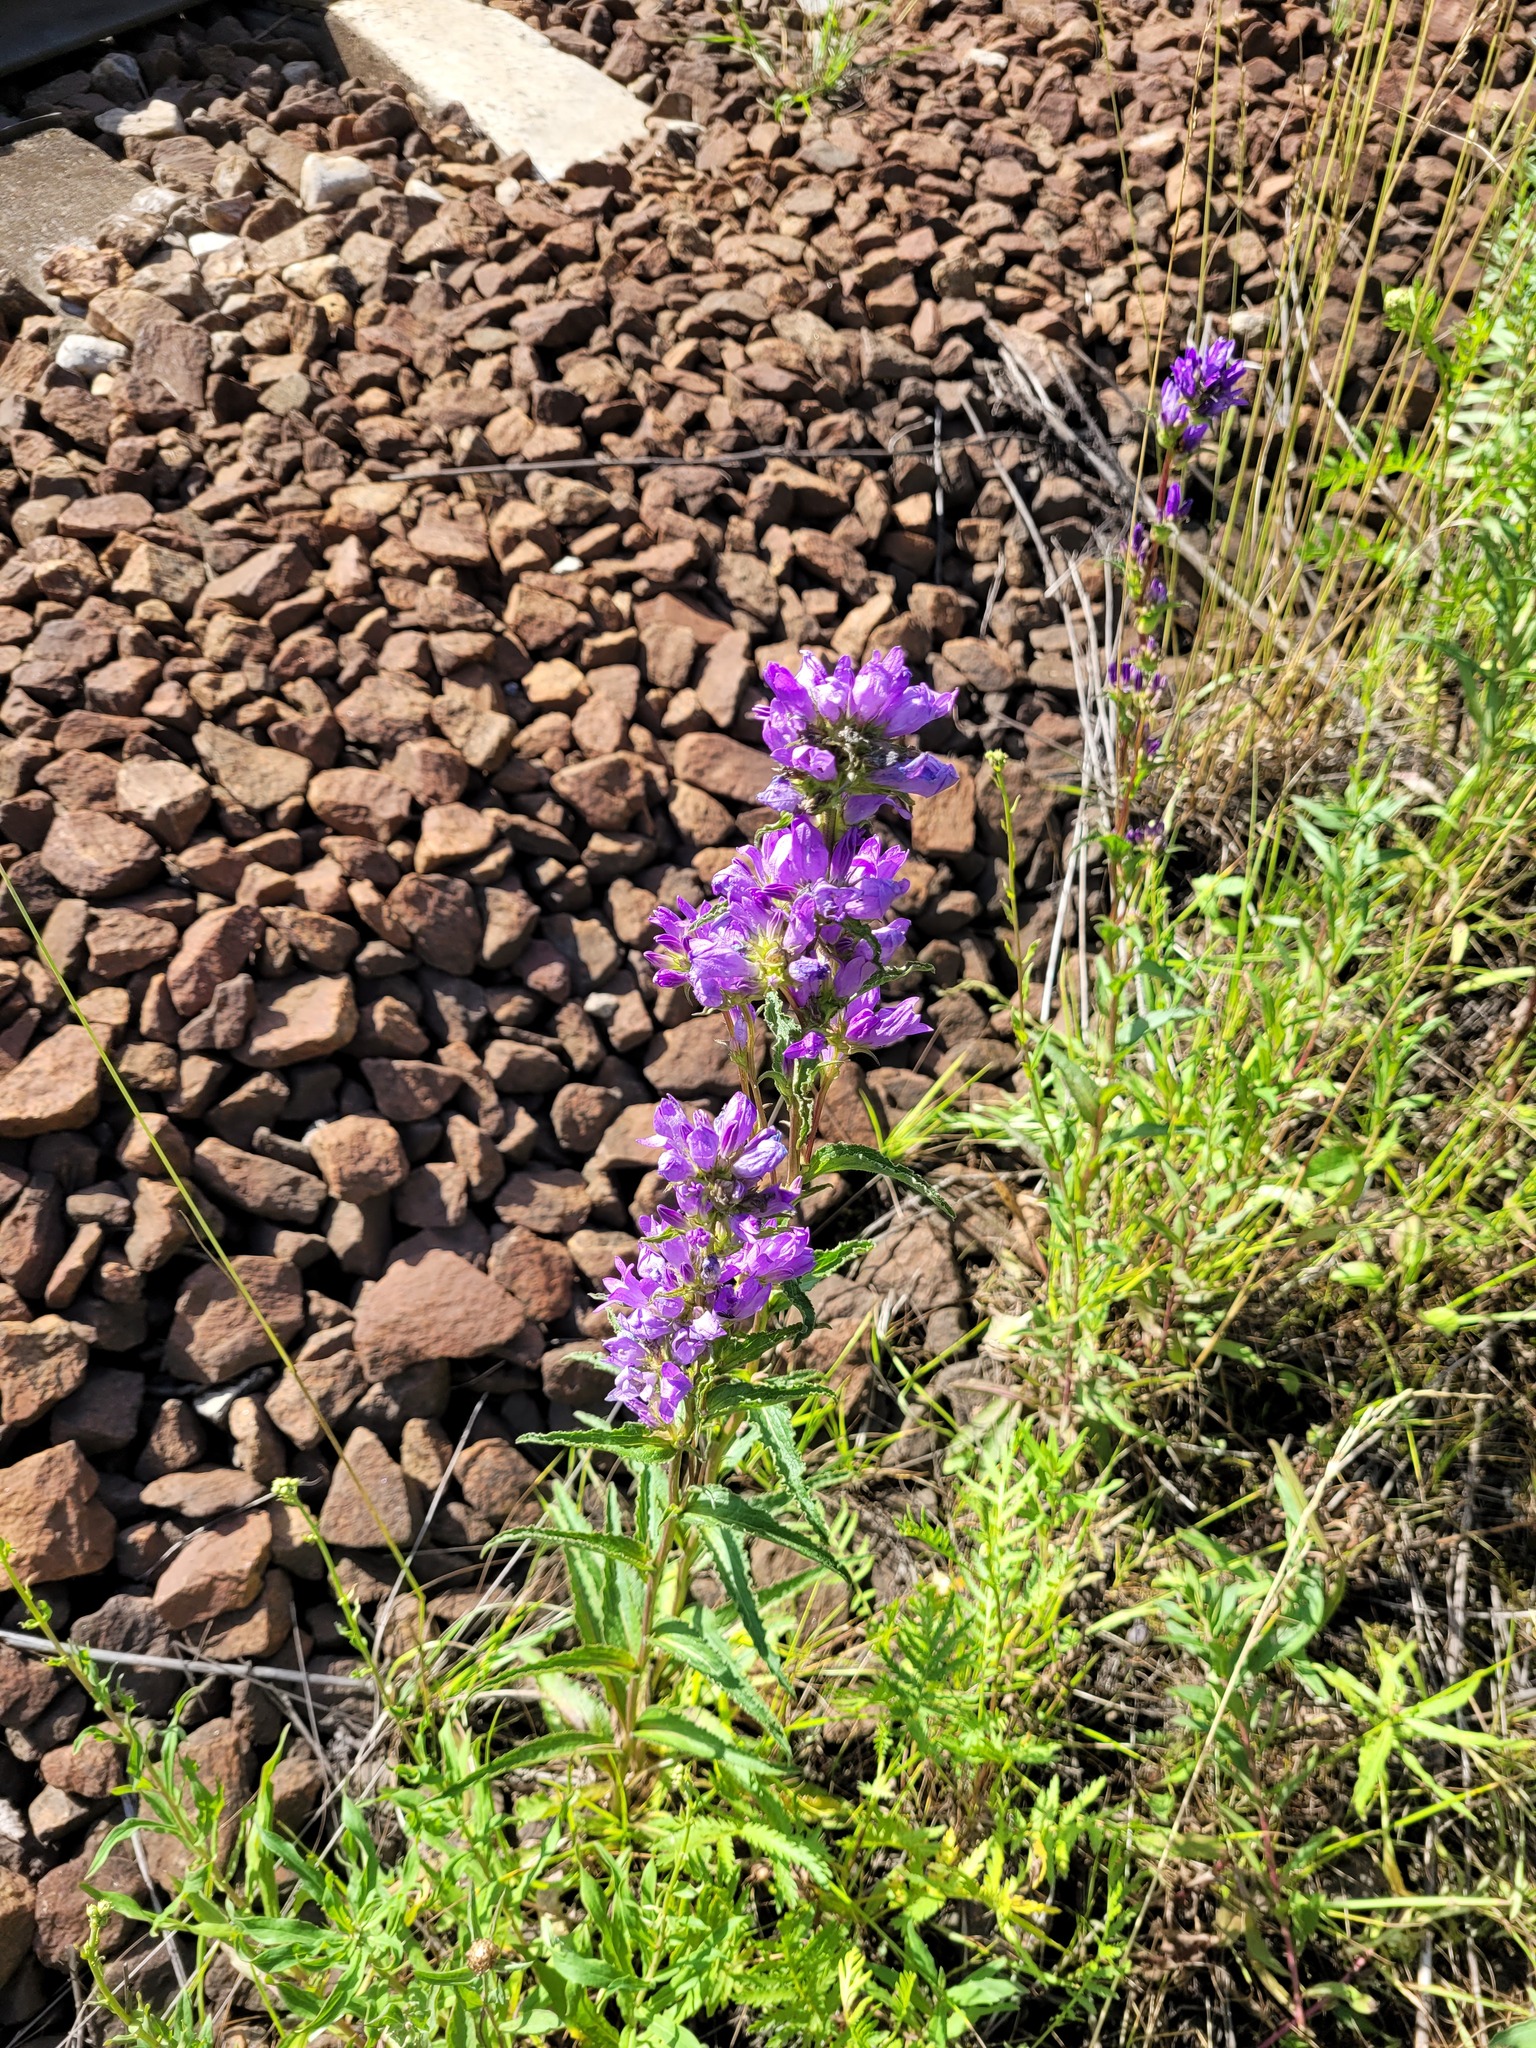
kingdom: Plantae
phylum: Tracheophyta
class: Magnoliopsida
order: Asterales
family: Campanulaceae
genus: Campanula
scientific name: Campanula glomerata
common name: Clustered bellflower
